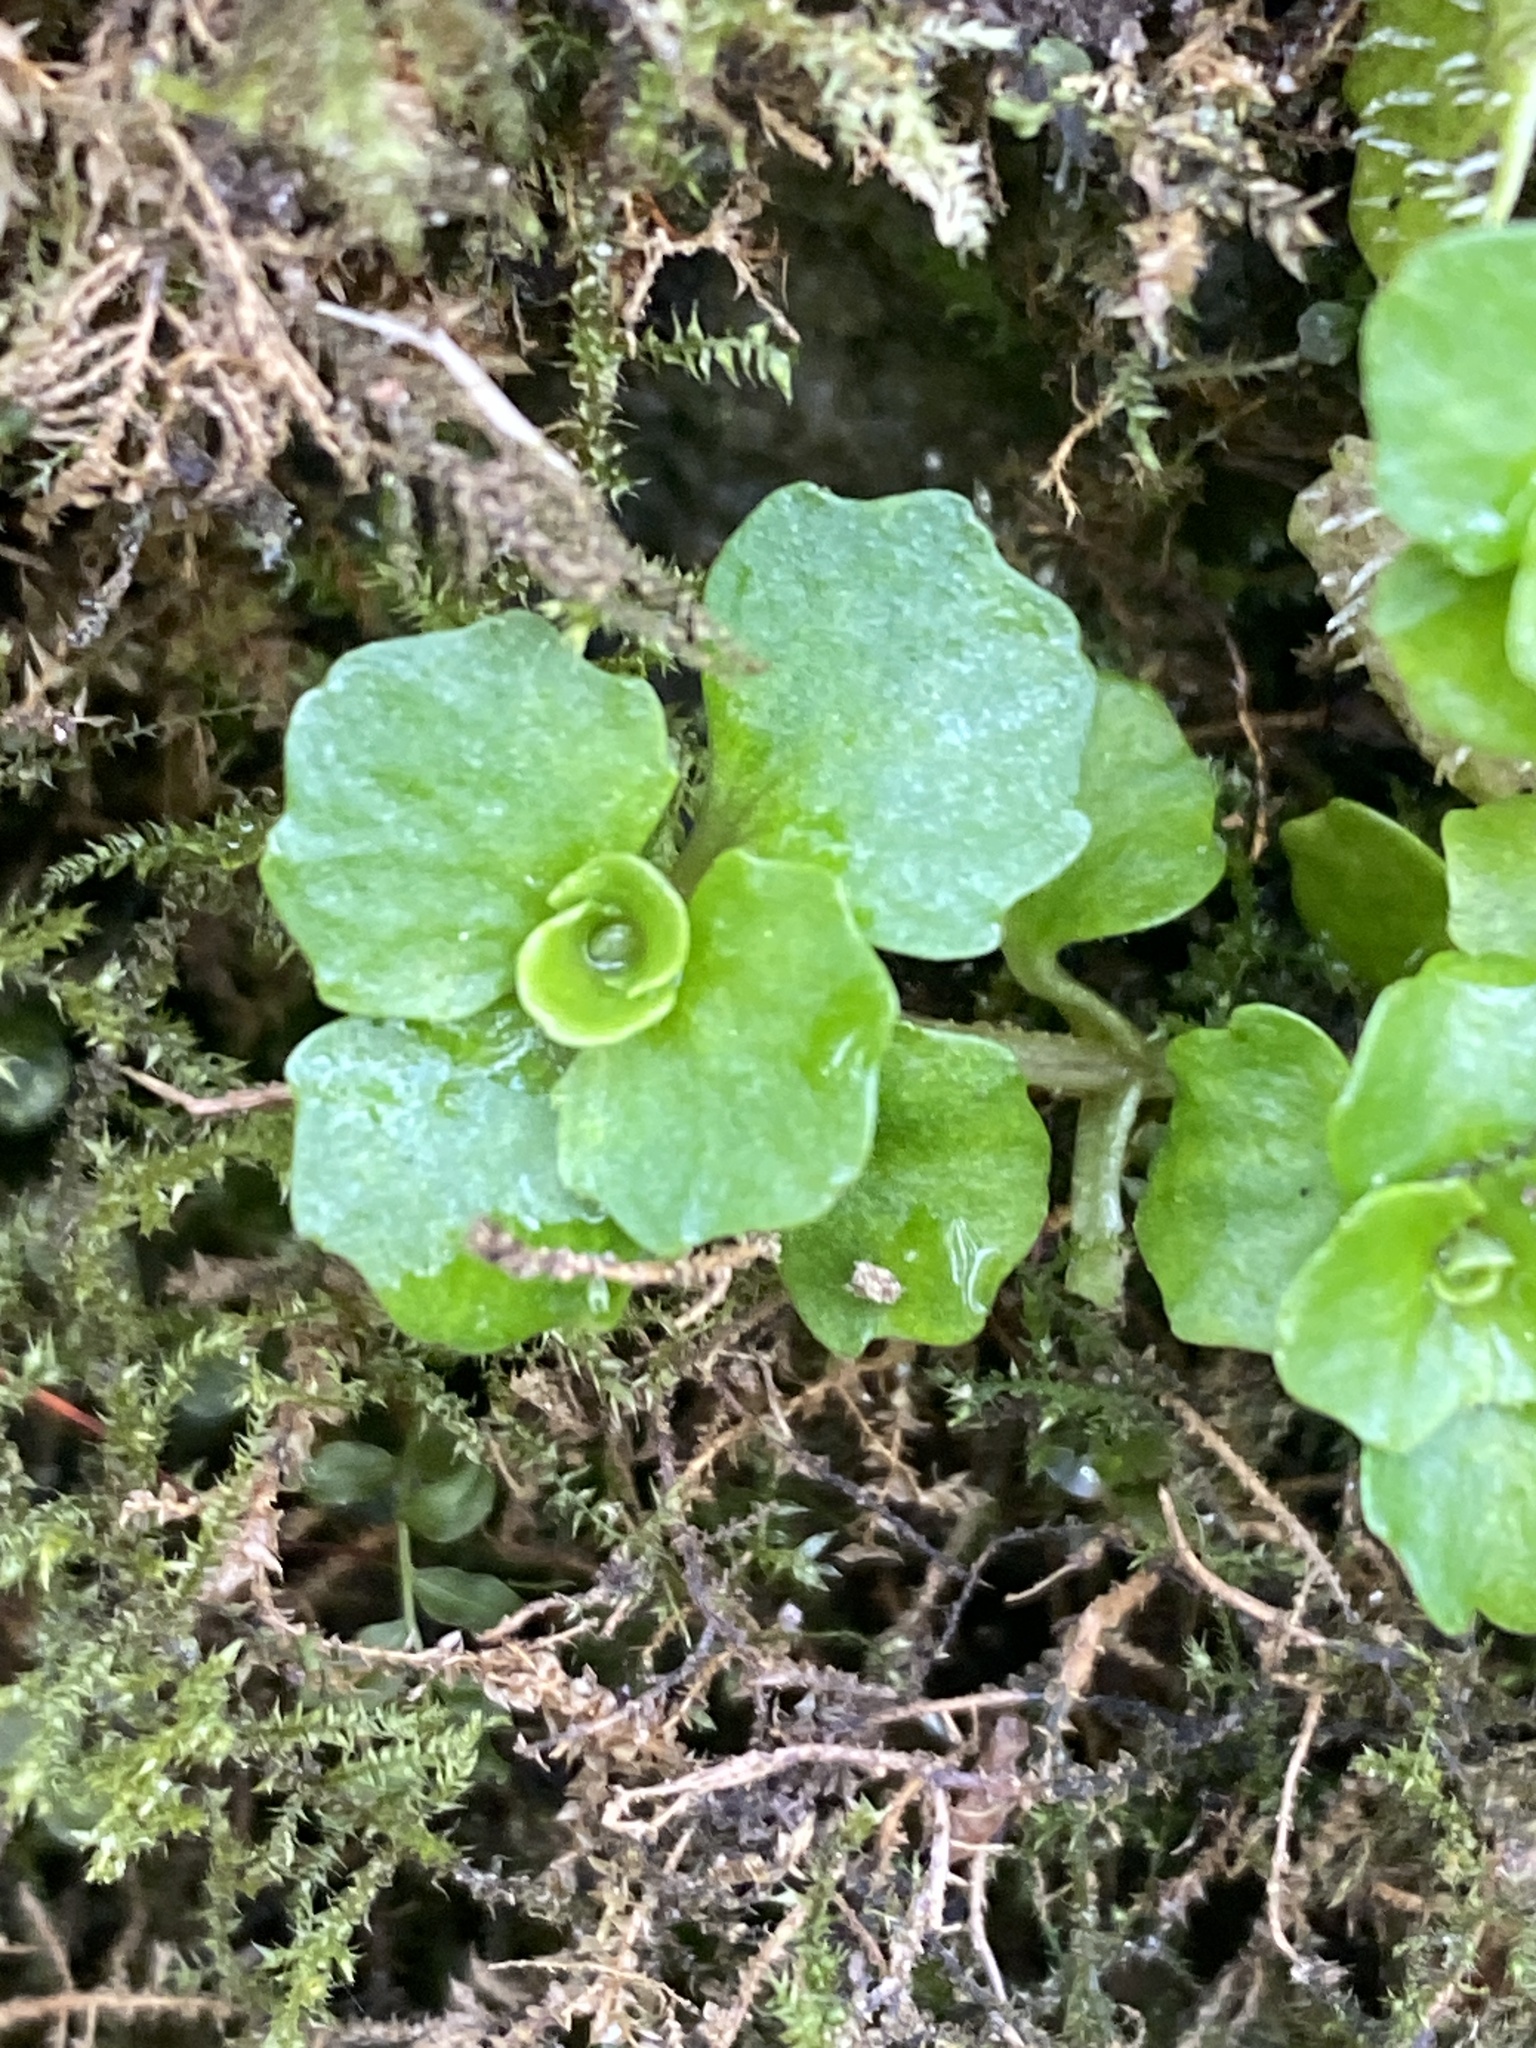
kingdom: Plantae
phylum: Tracheophyta
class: Magnoliopsida
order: Saxifragales
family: Saxifragaceae
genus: Chrysosplenium
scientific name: Chrysosplenium oppositifolium
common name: Opposite-leaved golden-saxifrage
